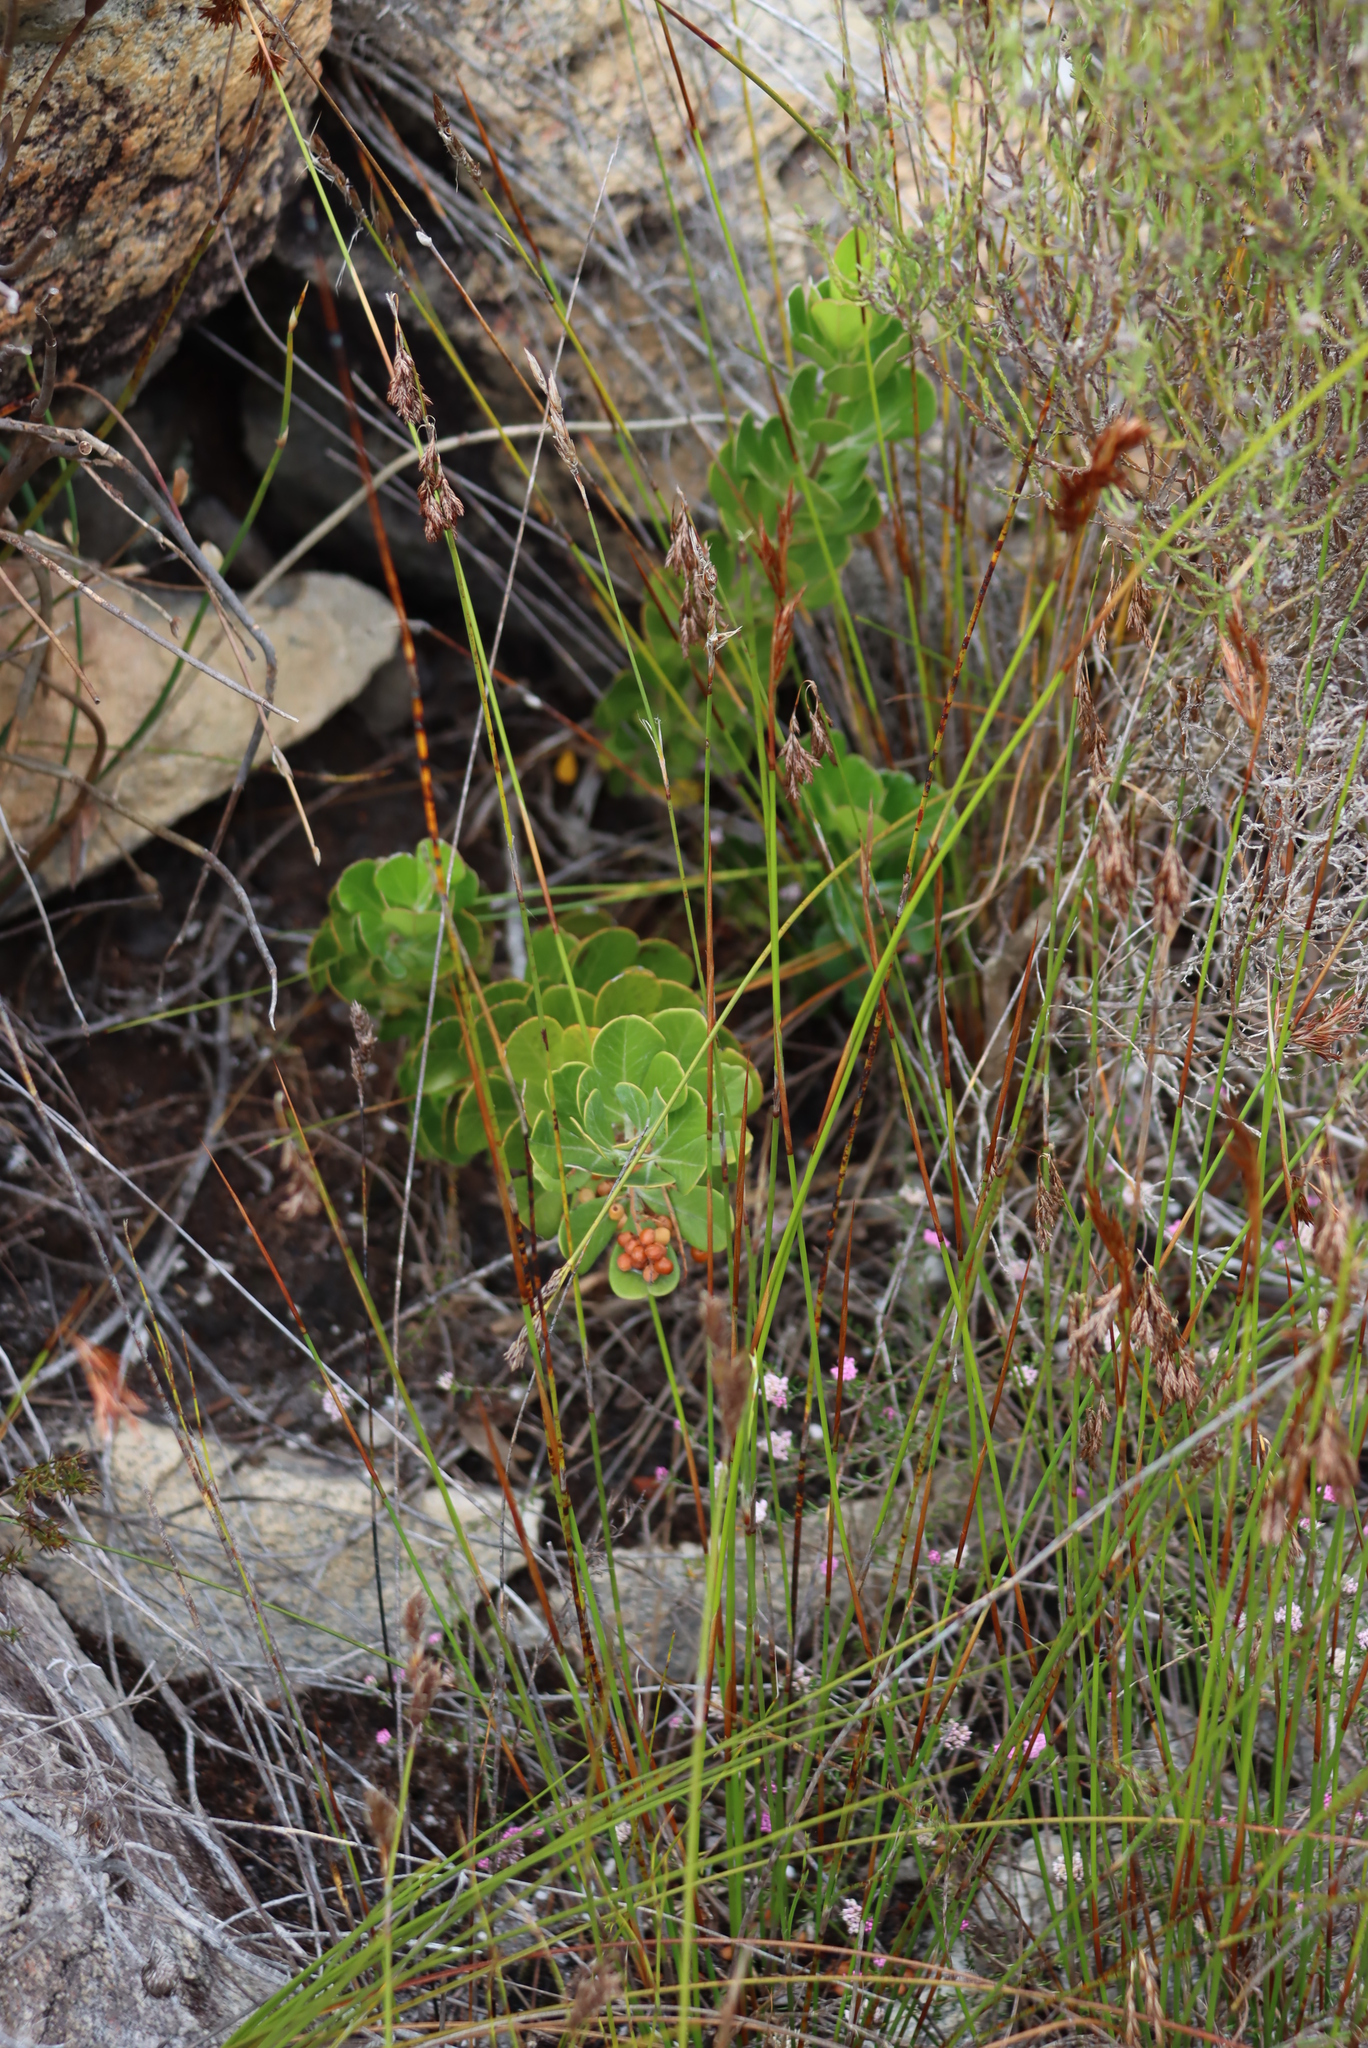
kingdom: Plantae
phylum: Tracheophyta
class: Magnoliopsida
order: Sapindales
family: Anacardiaceae
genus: Searsia
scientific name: Searsia scytophylla
